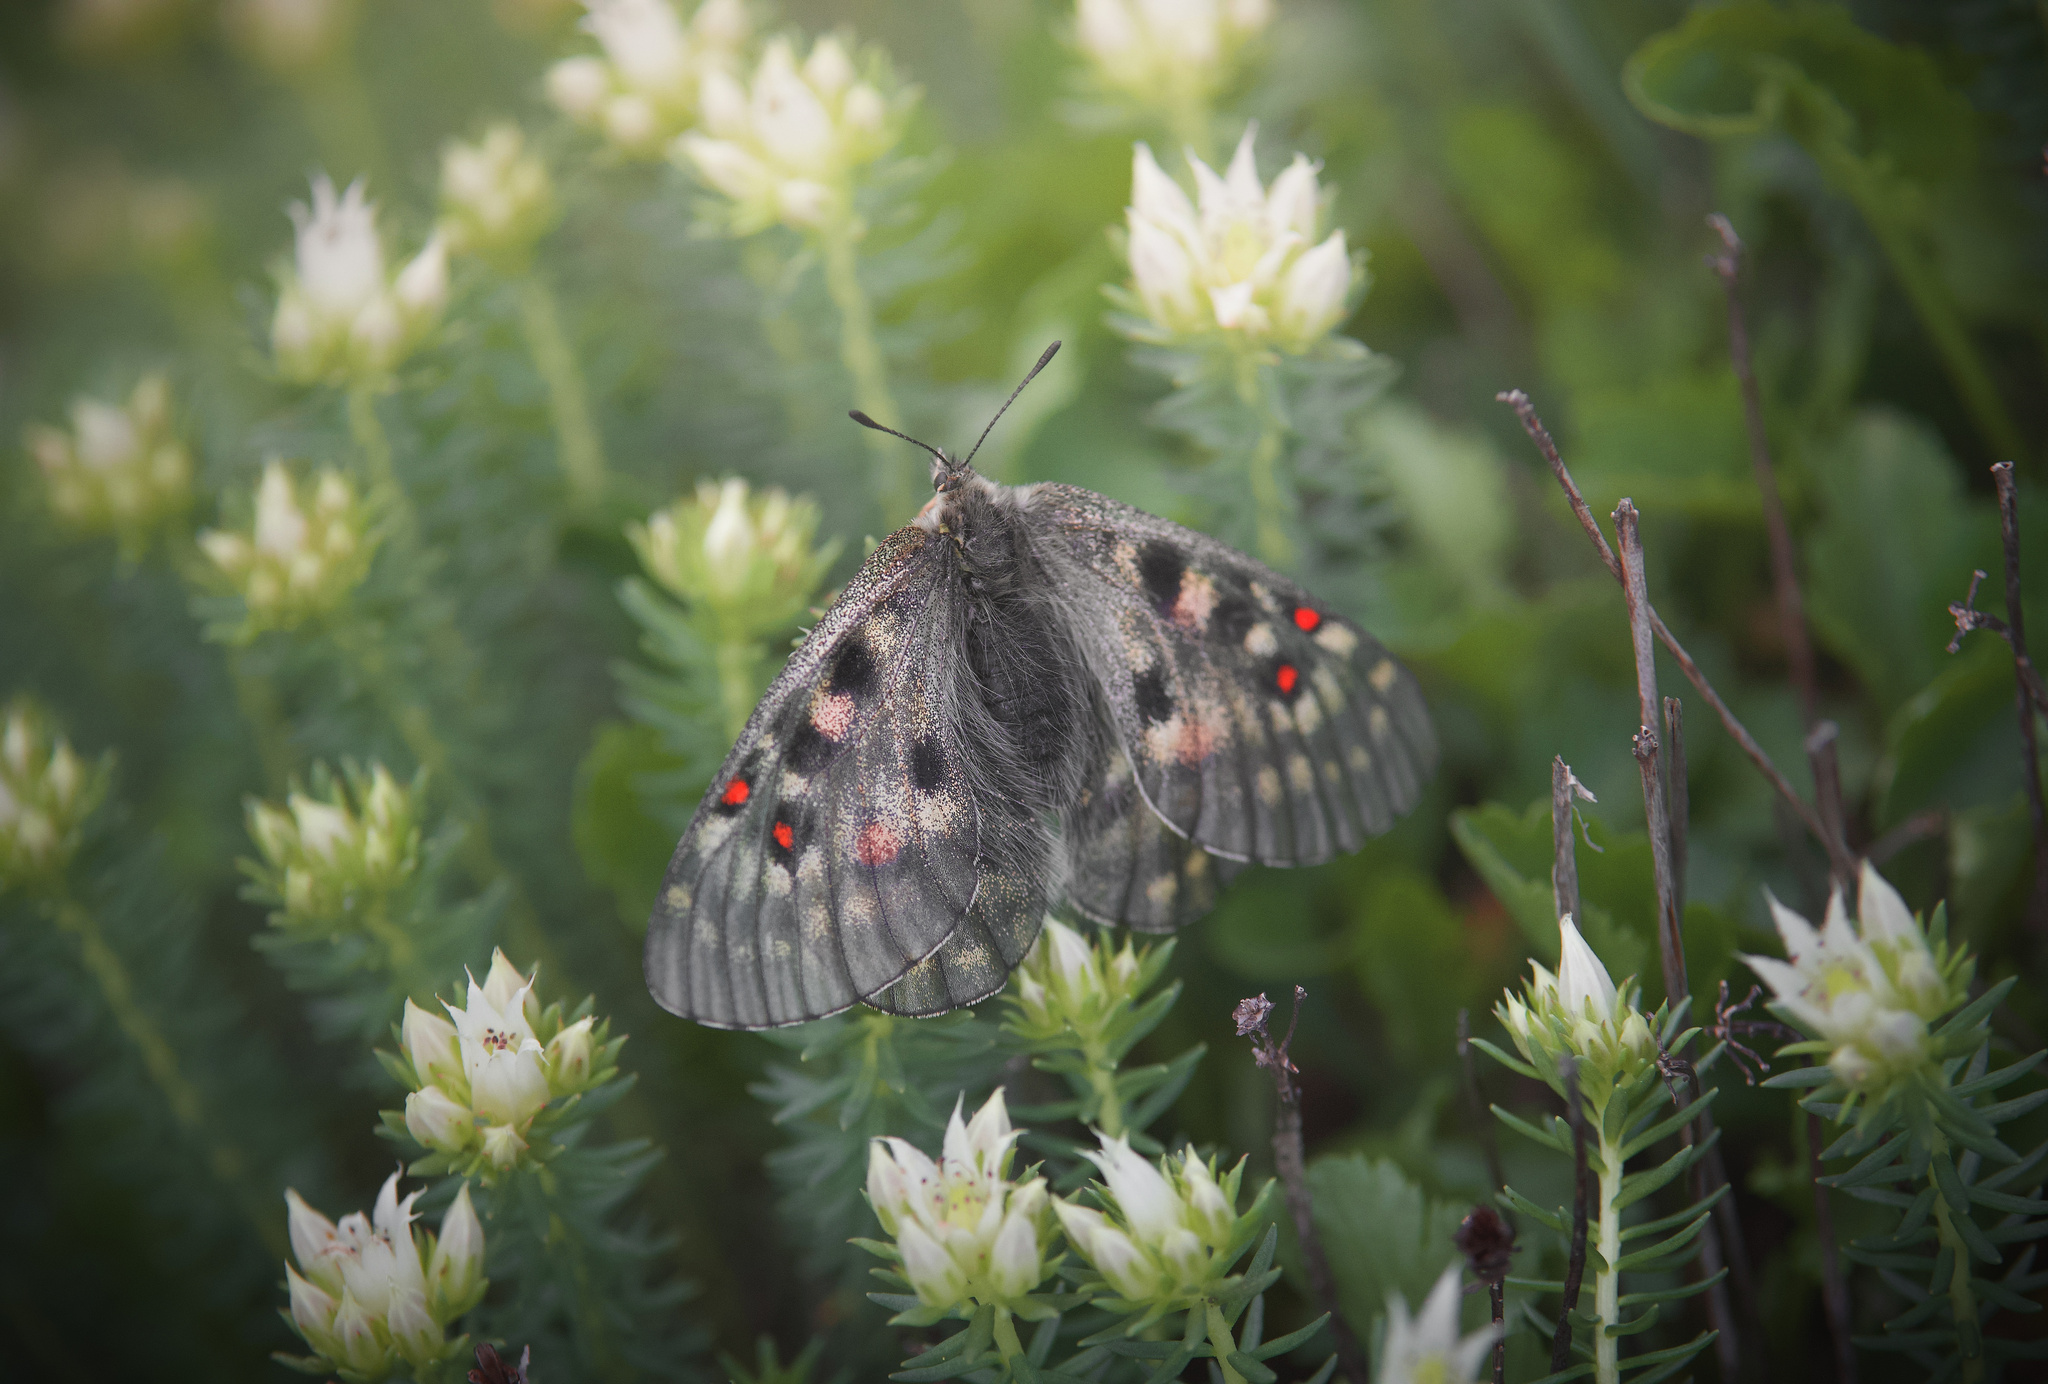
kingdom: Animalia
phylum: Arthropoda
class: Insecta
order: Lepidoptera
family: Papilionidae
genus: Parnassius
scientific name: Parnassius bremeri
